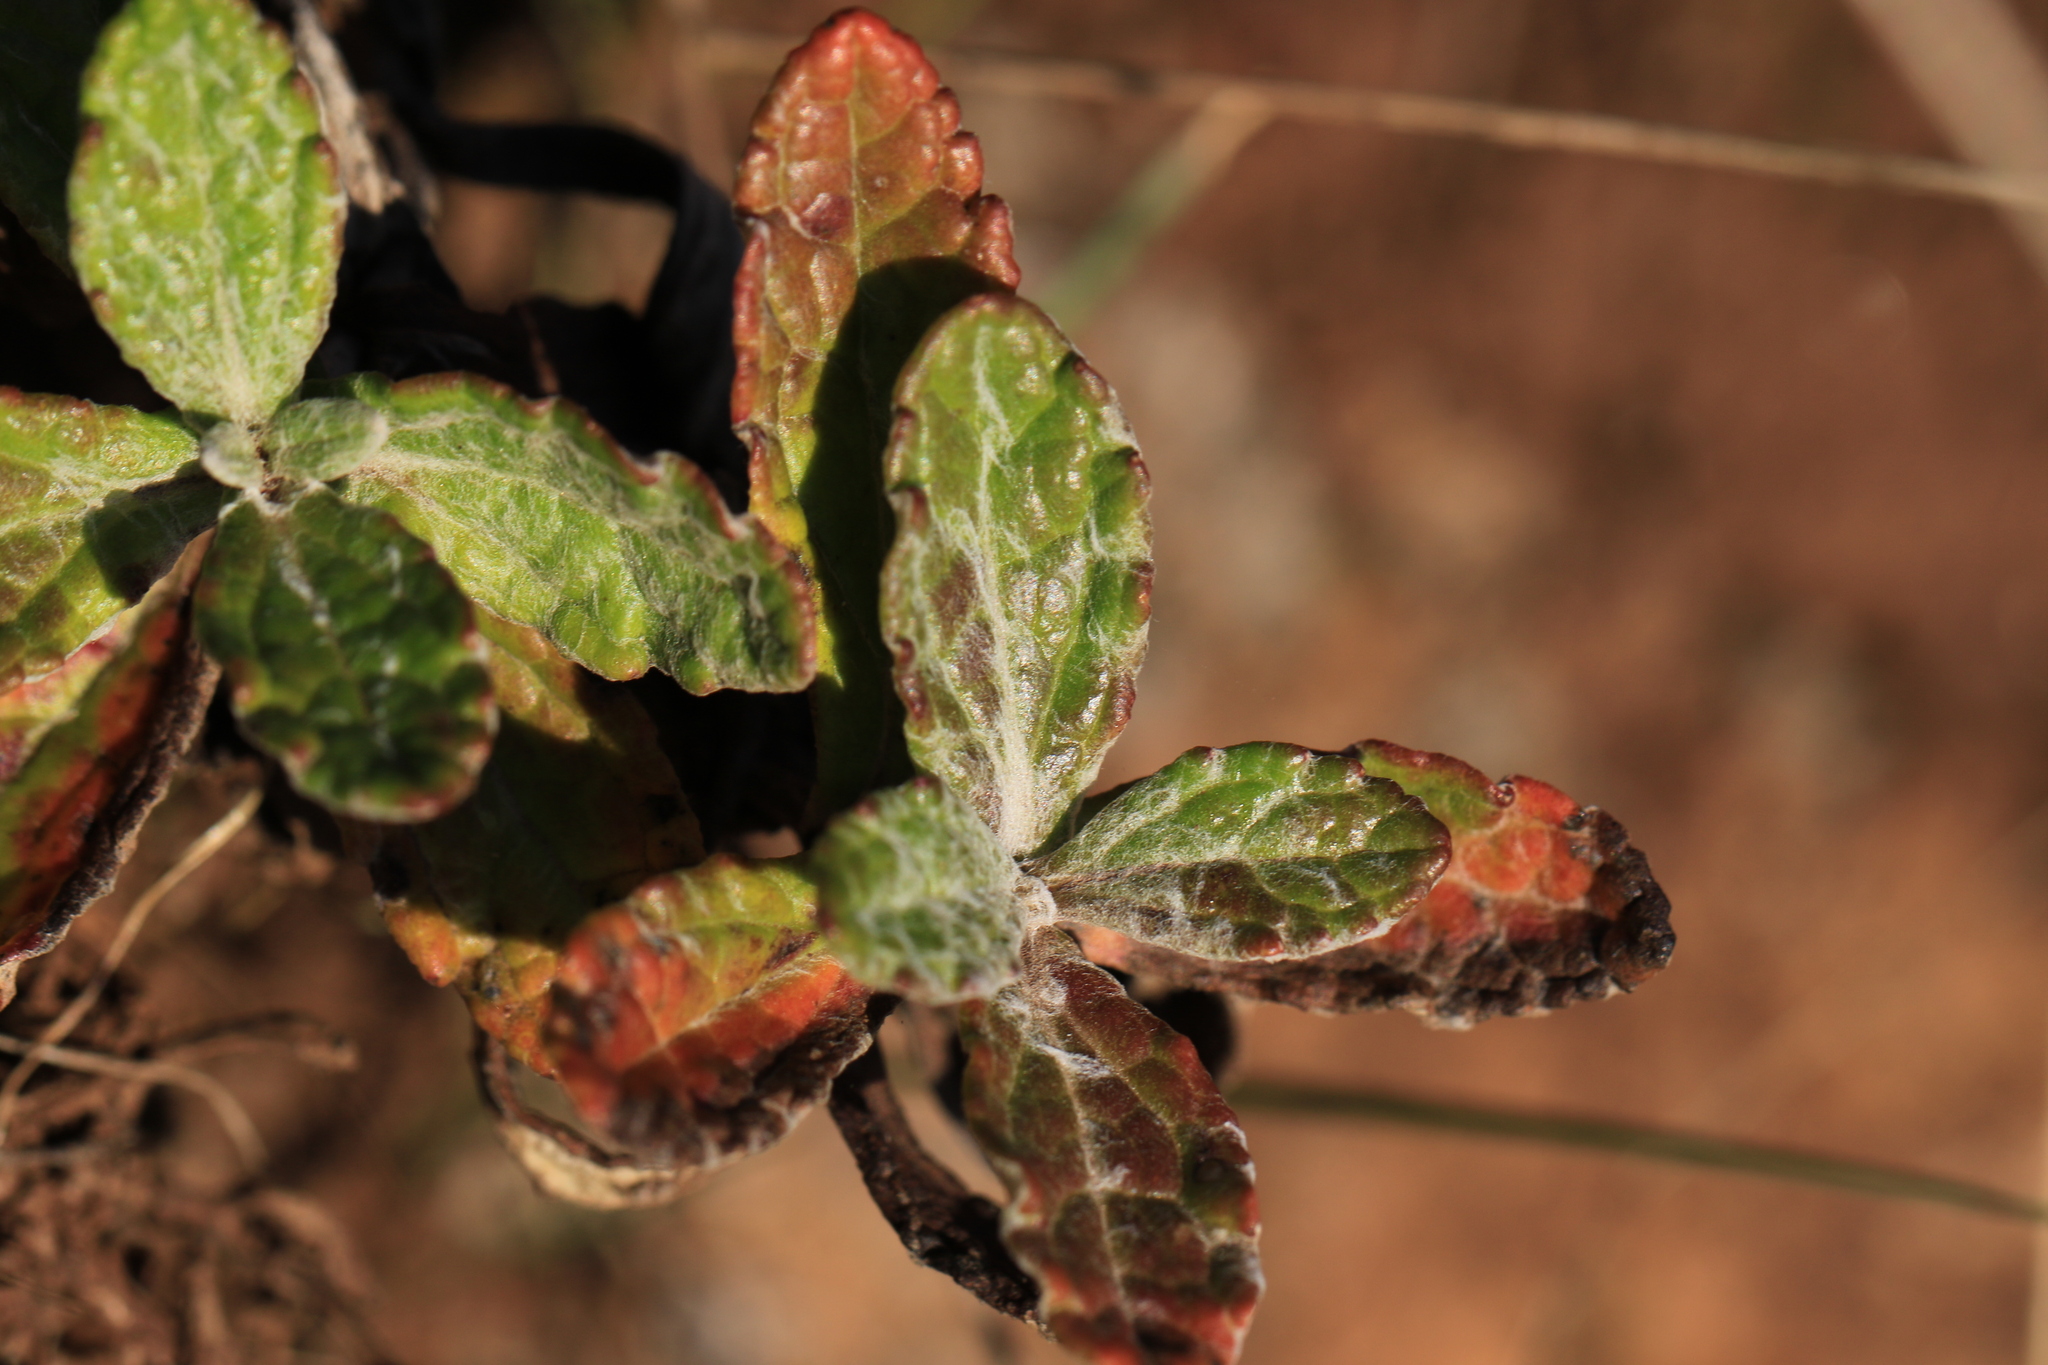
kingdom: Plantae
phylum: Tracheophyta
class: Magnoliopsida
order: Asterales
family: Asteraceae
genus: Eriophyllum
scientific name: Eriophyllum lanatum
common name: Common woolly-sunflower
